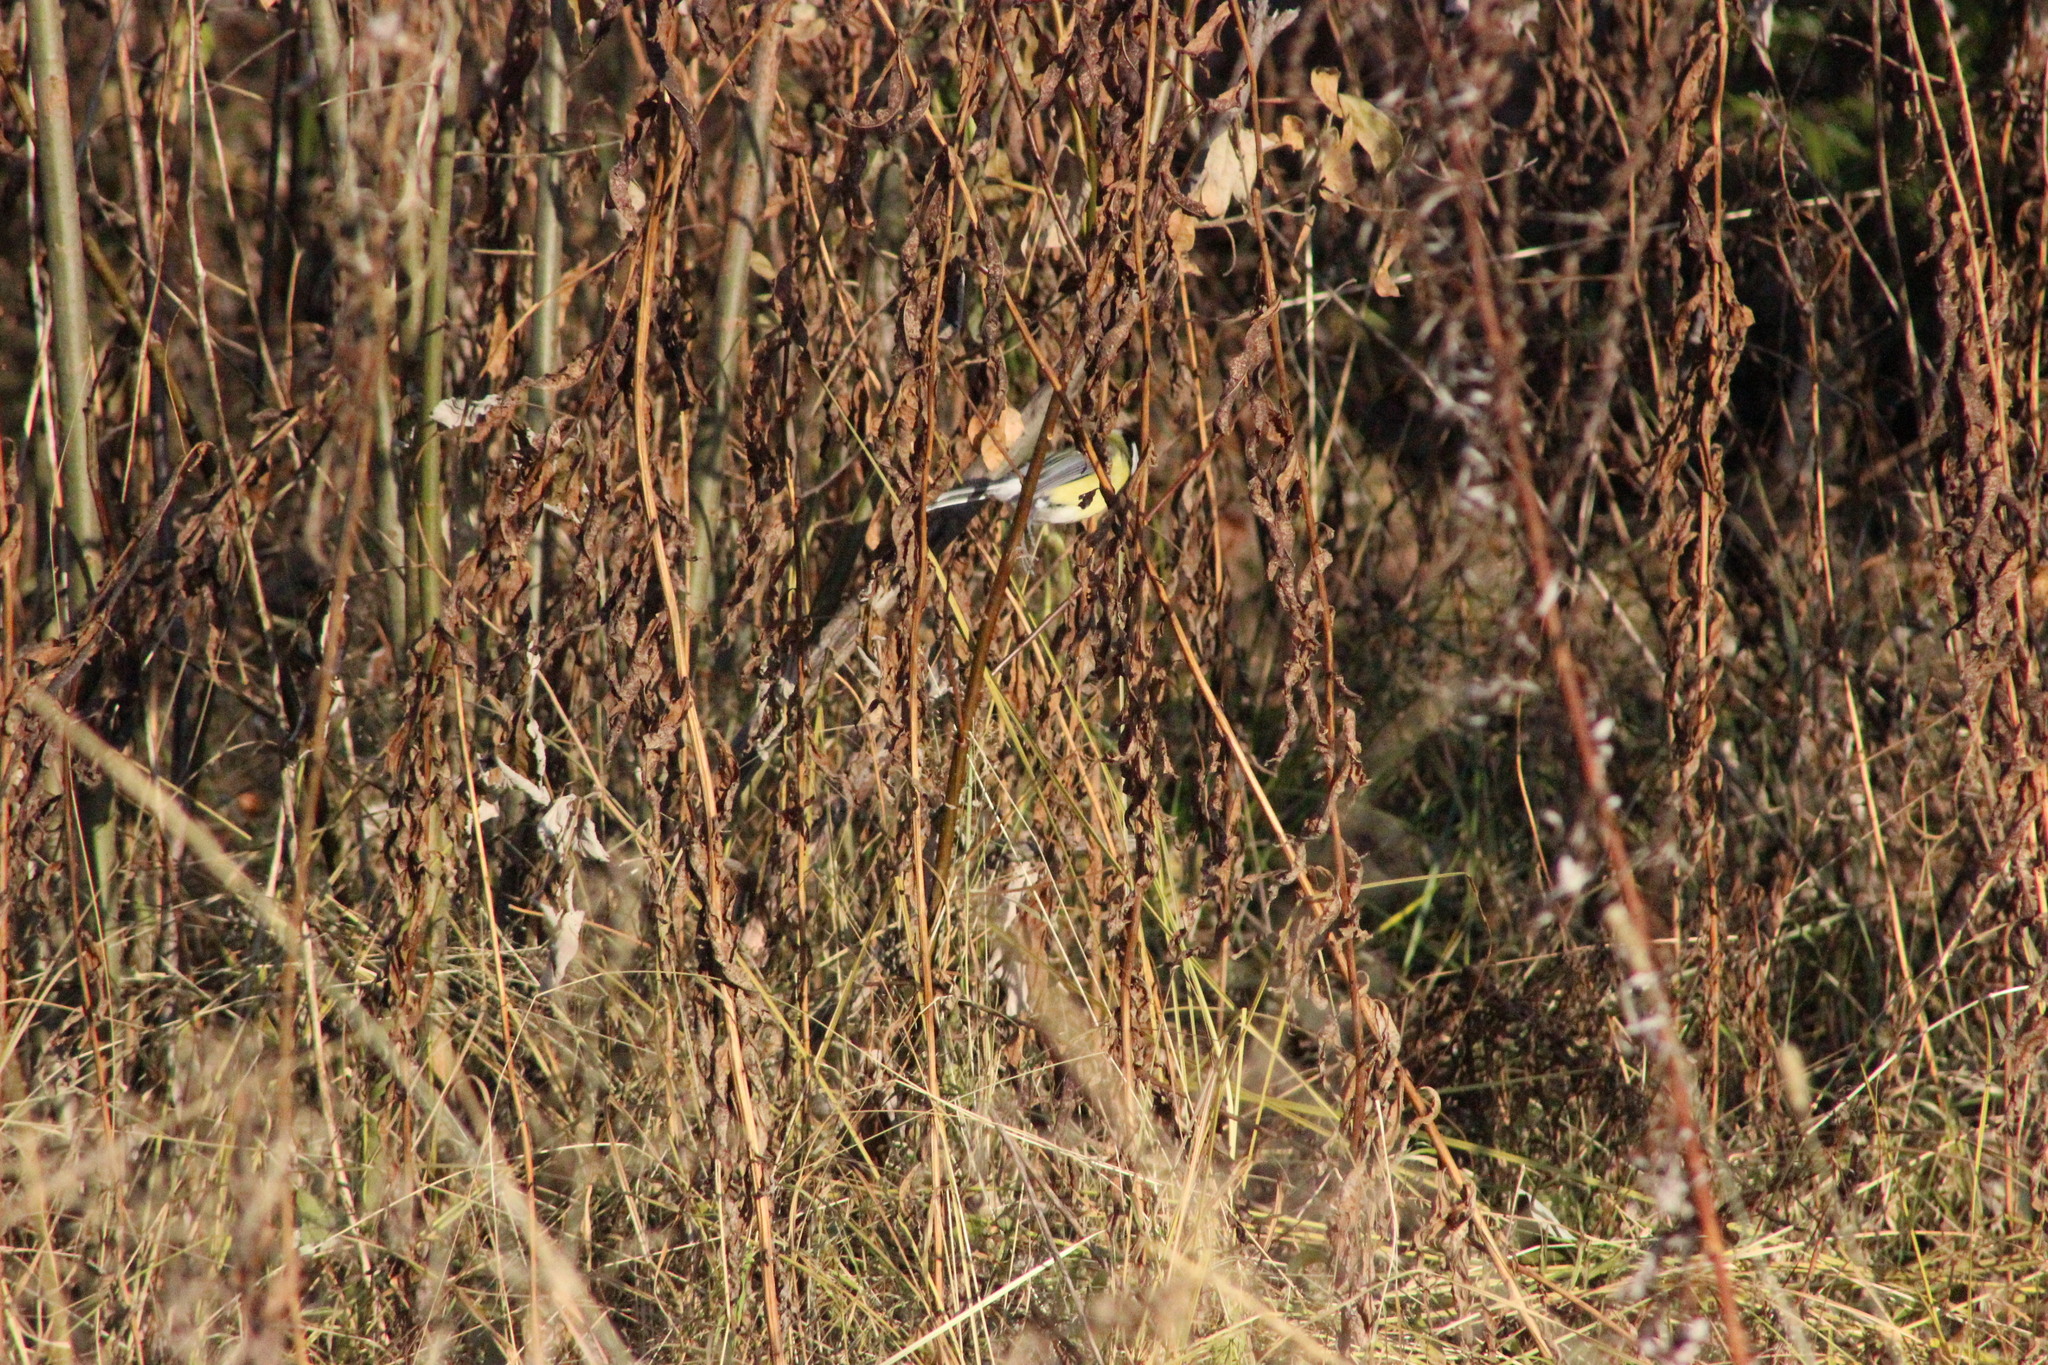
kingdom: Animalia
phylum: Chordata
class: Aves
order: Passeriformes
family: Paridae
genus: Parus
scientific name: Parus major
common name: Great tit
